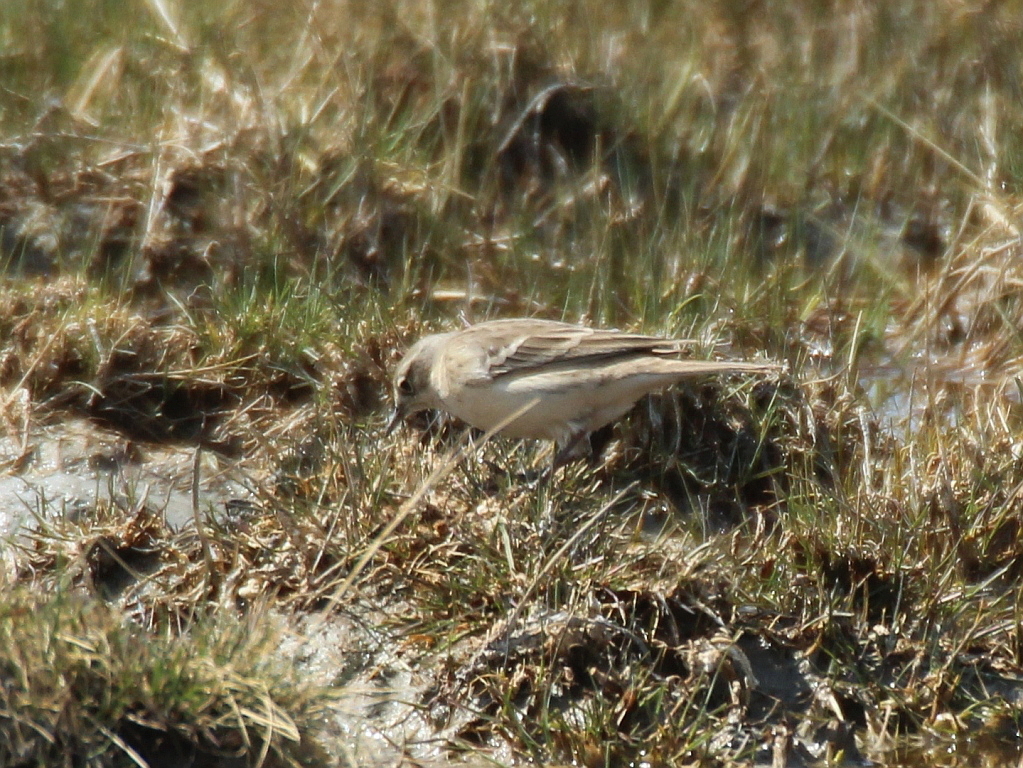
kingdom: Animalia
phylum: Chordata
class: Aves
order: Passeriformes
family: Motacillidae
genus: Anthus
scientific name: Anthus spinoletta
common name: Water pipit
